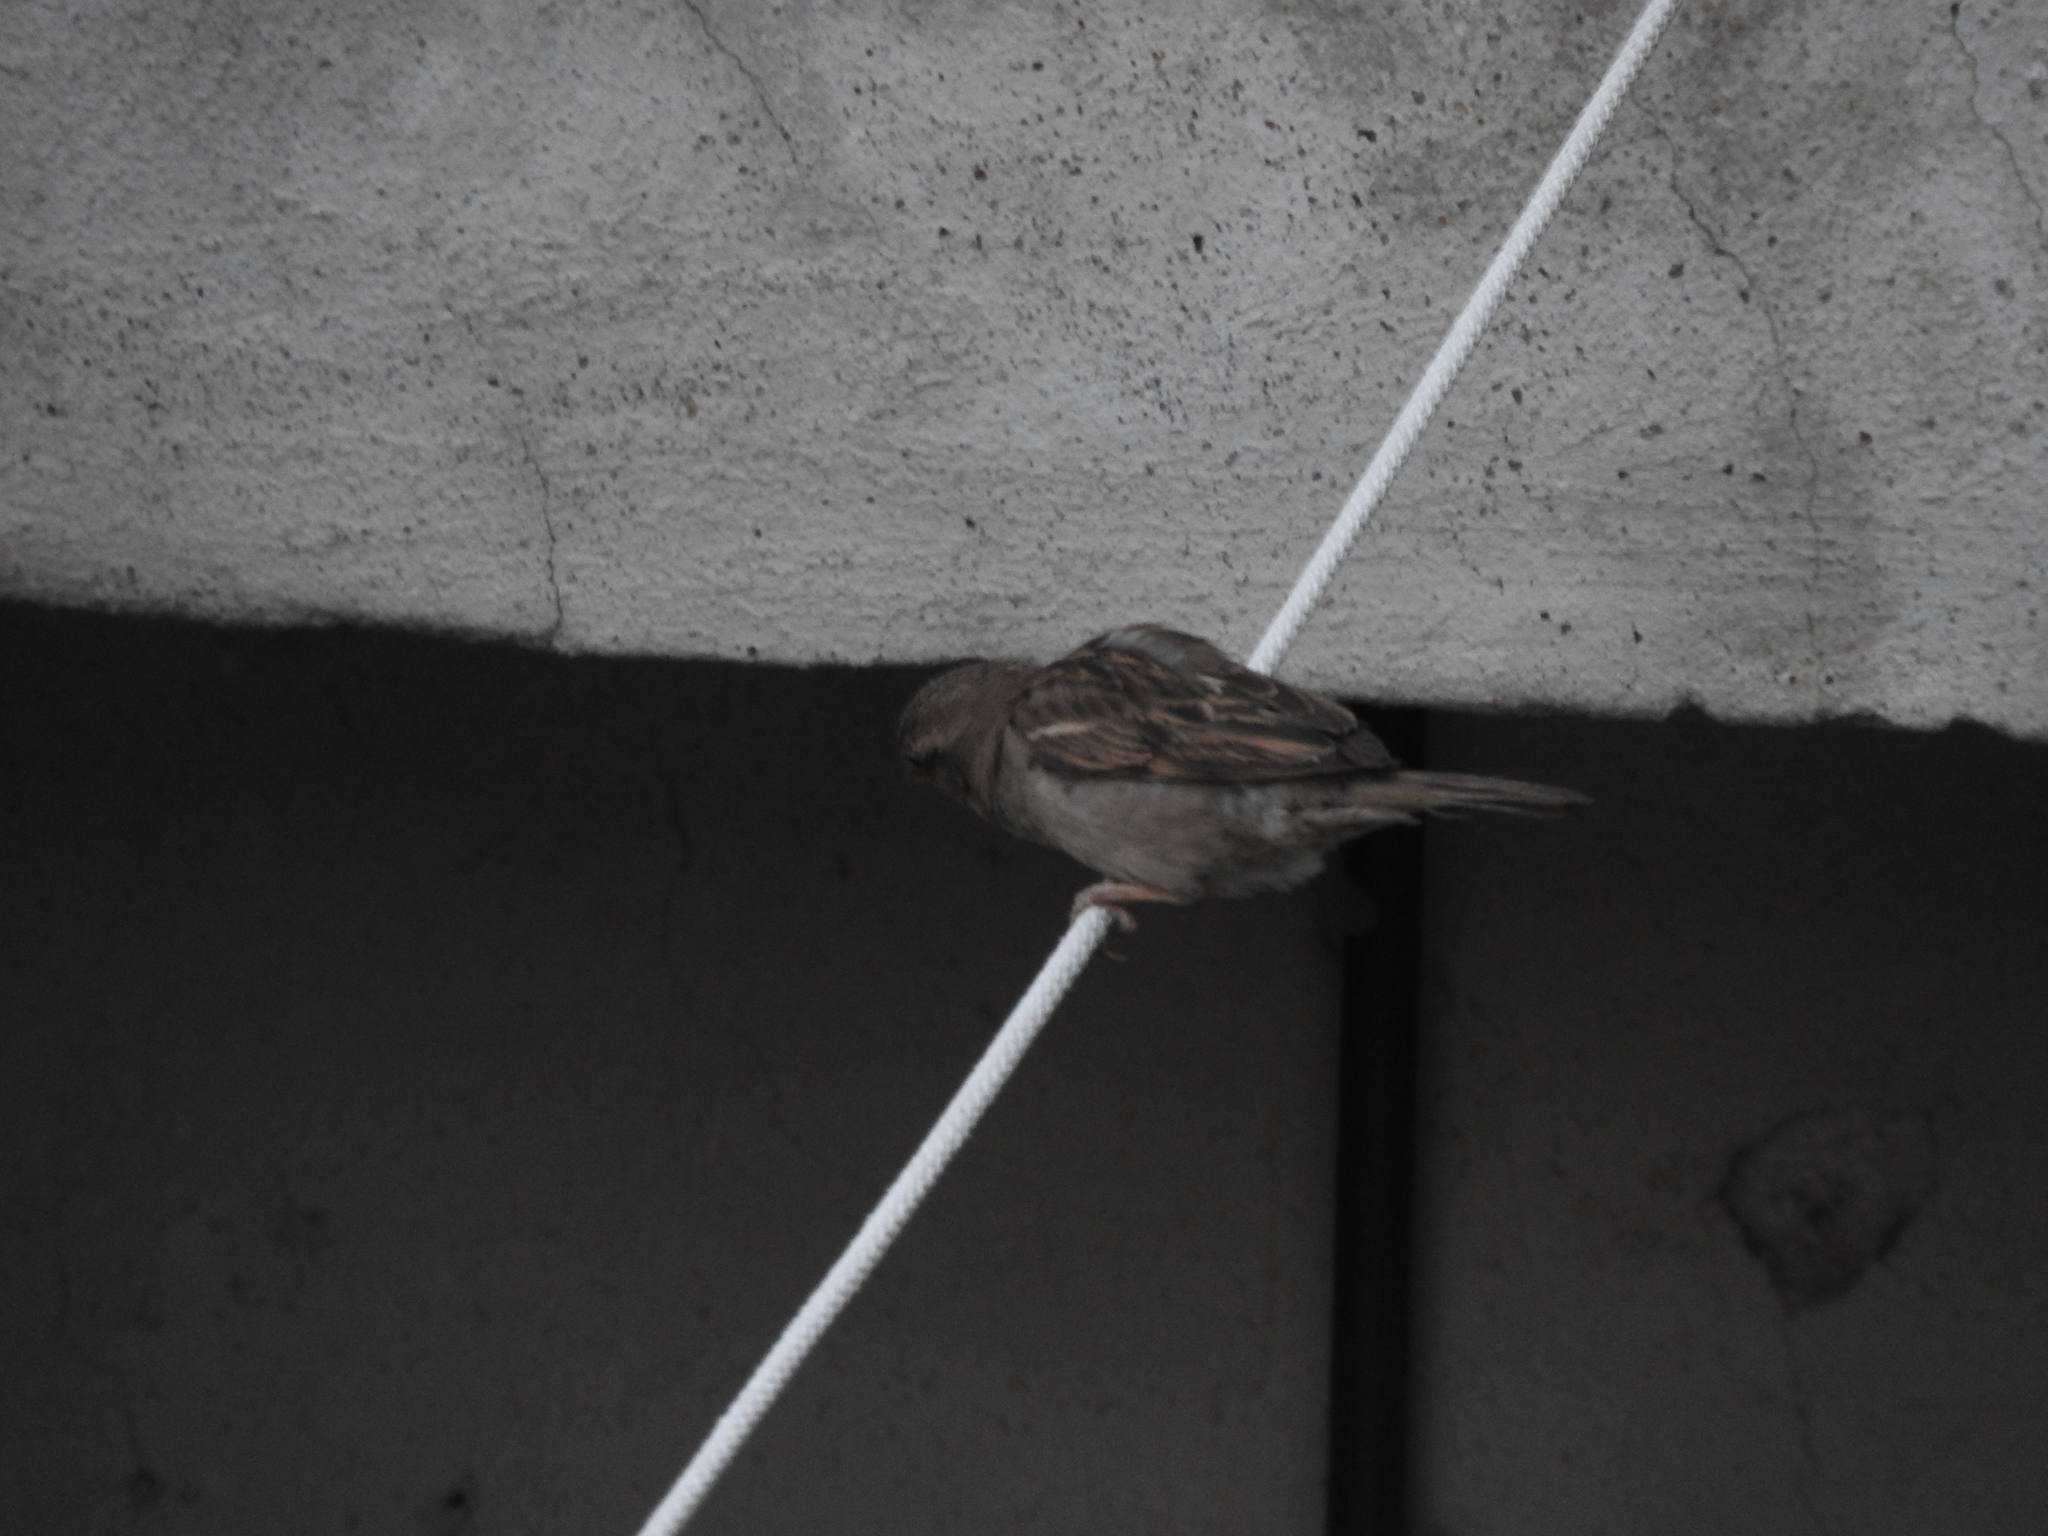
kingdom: Animalia
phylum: Chordata
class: Aves
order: Passeriformes
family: Passeridae
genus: Passer
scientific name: Passer domesticus
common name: House sparrow
